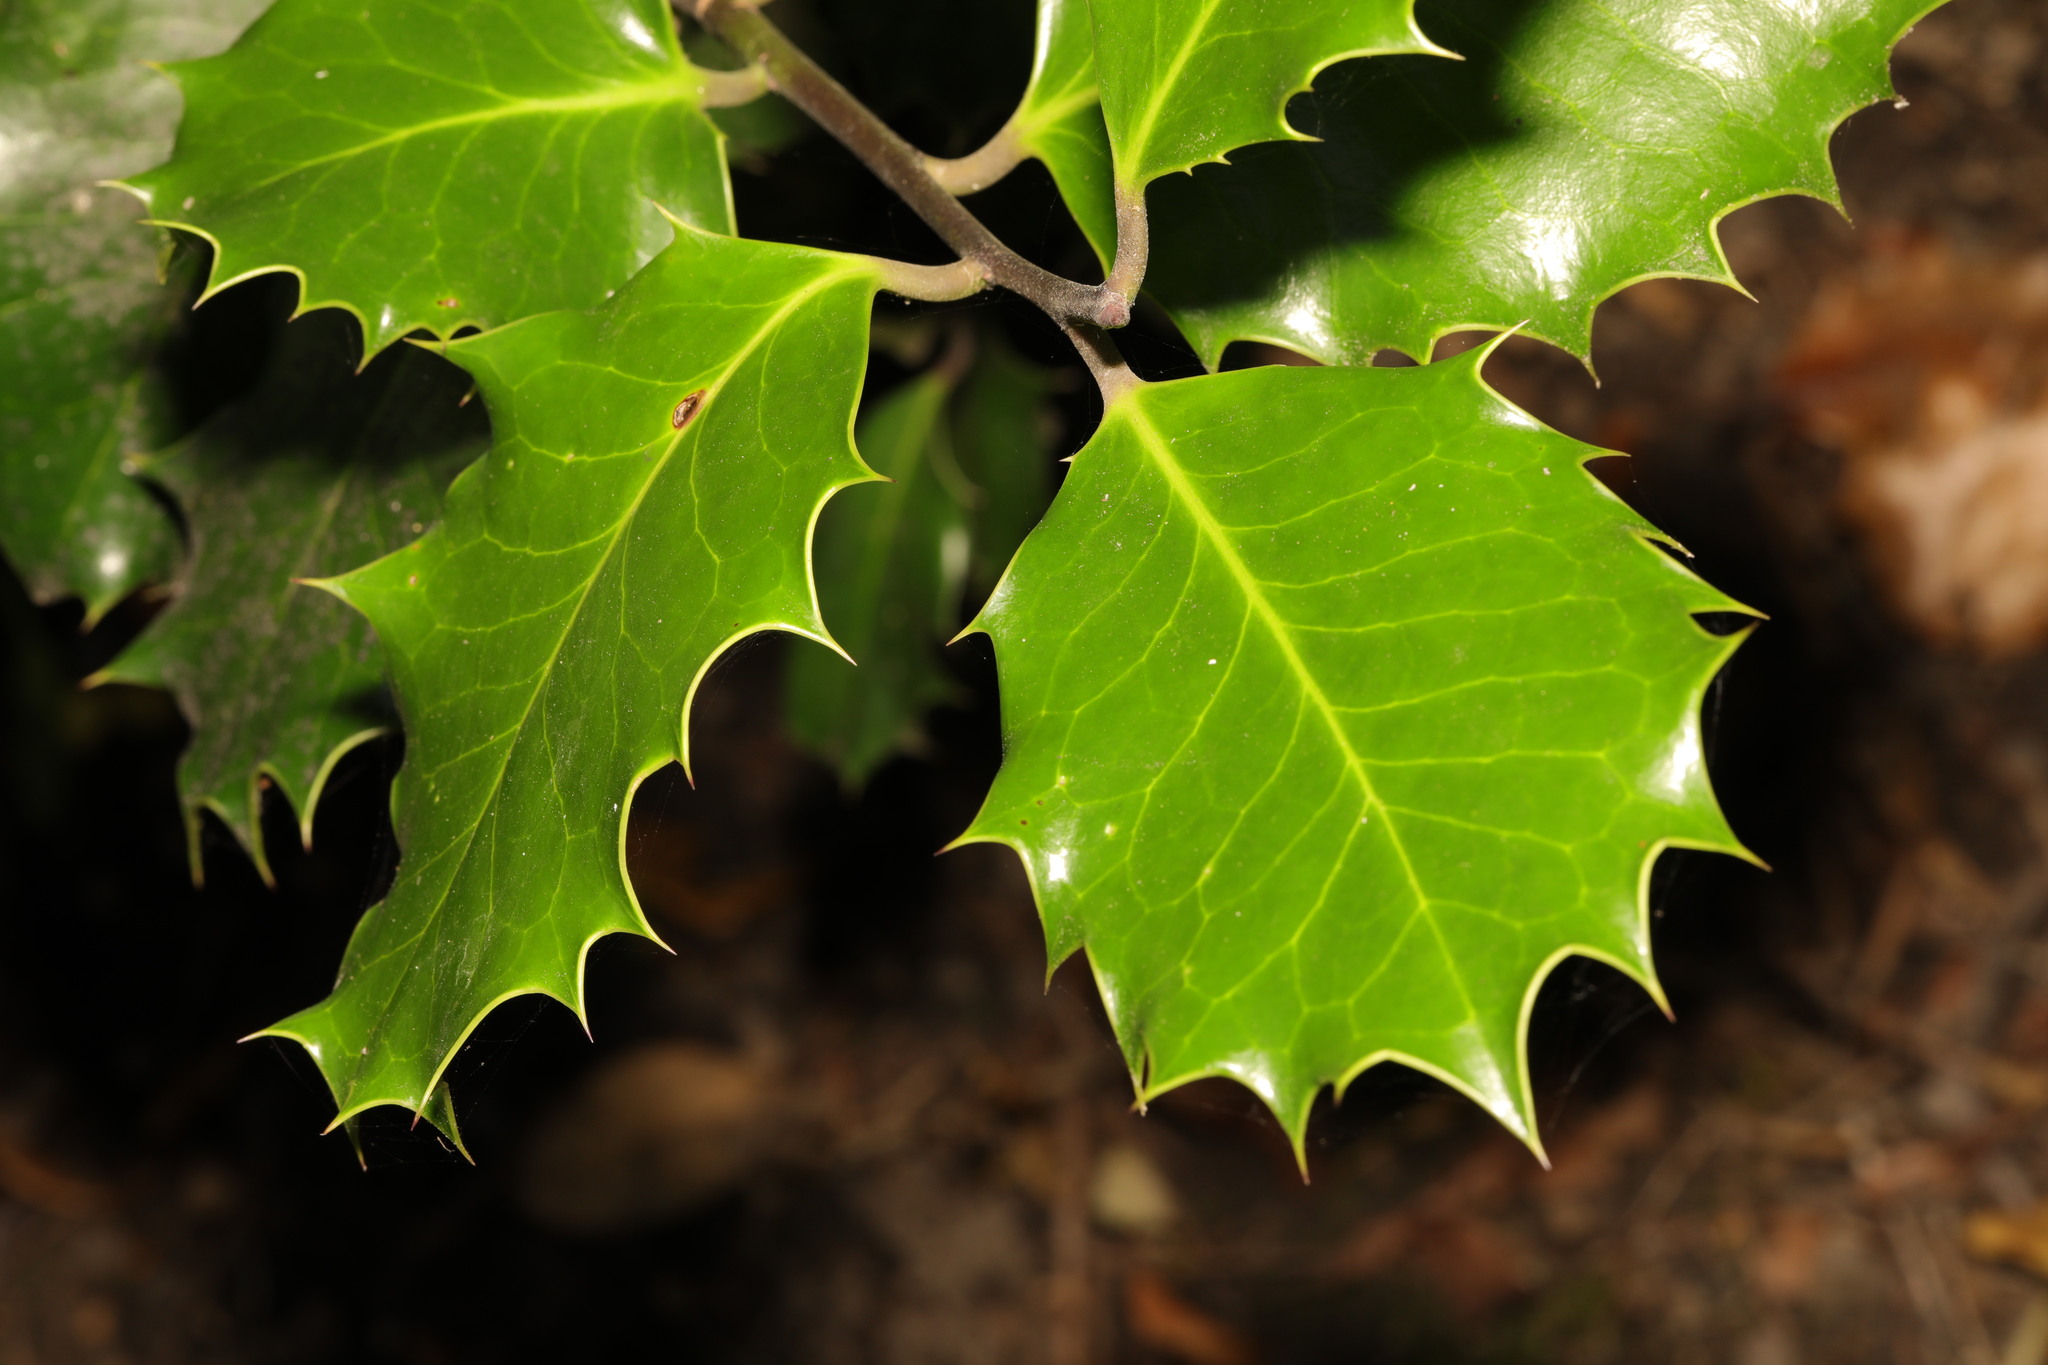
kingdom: Plantae
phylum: Tracheophyta
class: Magnoliopsida
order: Aquifoliales
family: Aquifoliaceae
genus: Ilex
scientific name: Ilex aquifolium
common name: English holly
